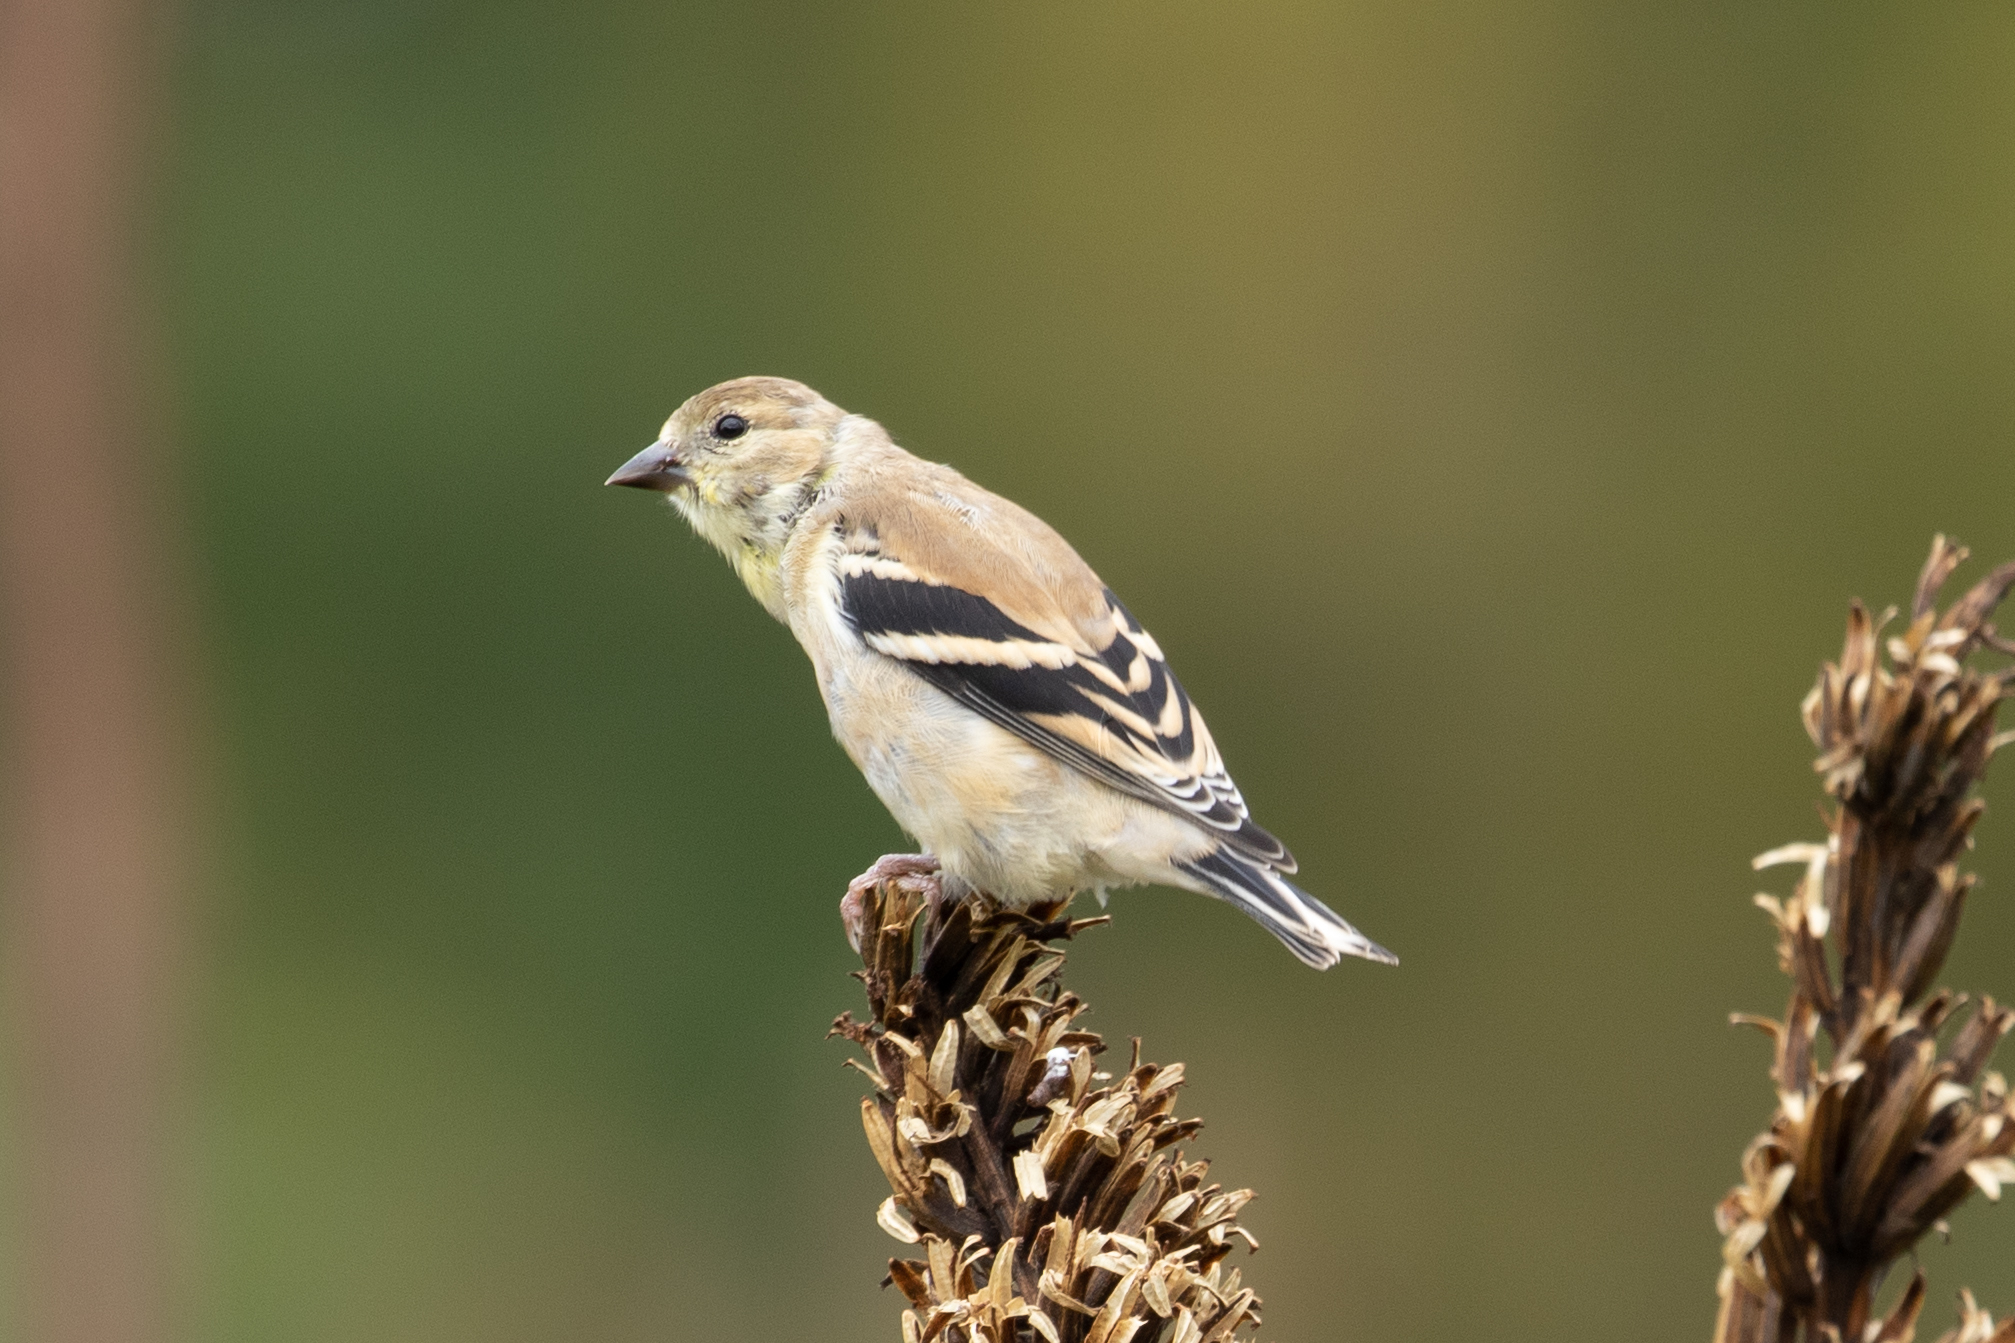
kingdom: Animalia
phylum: Chordata
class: Aves
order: Passeriformes
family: Fringillidae
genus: Spinus
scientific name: Spinus tristis
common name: American goldfinch
